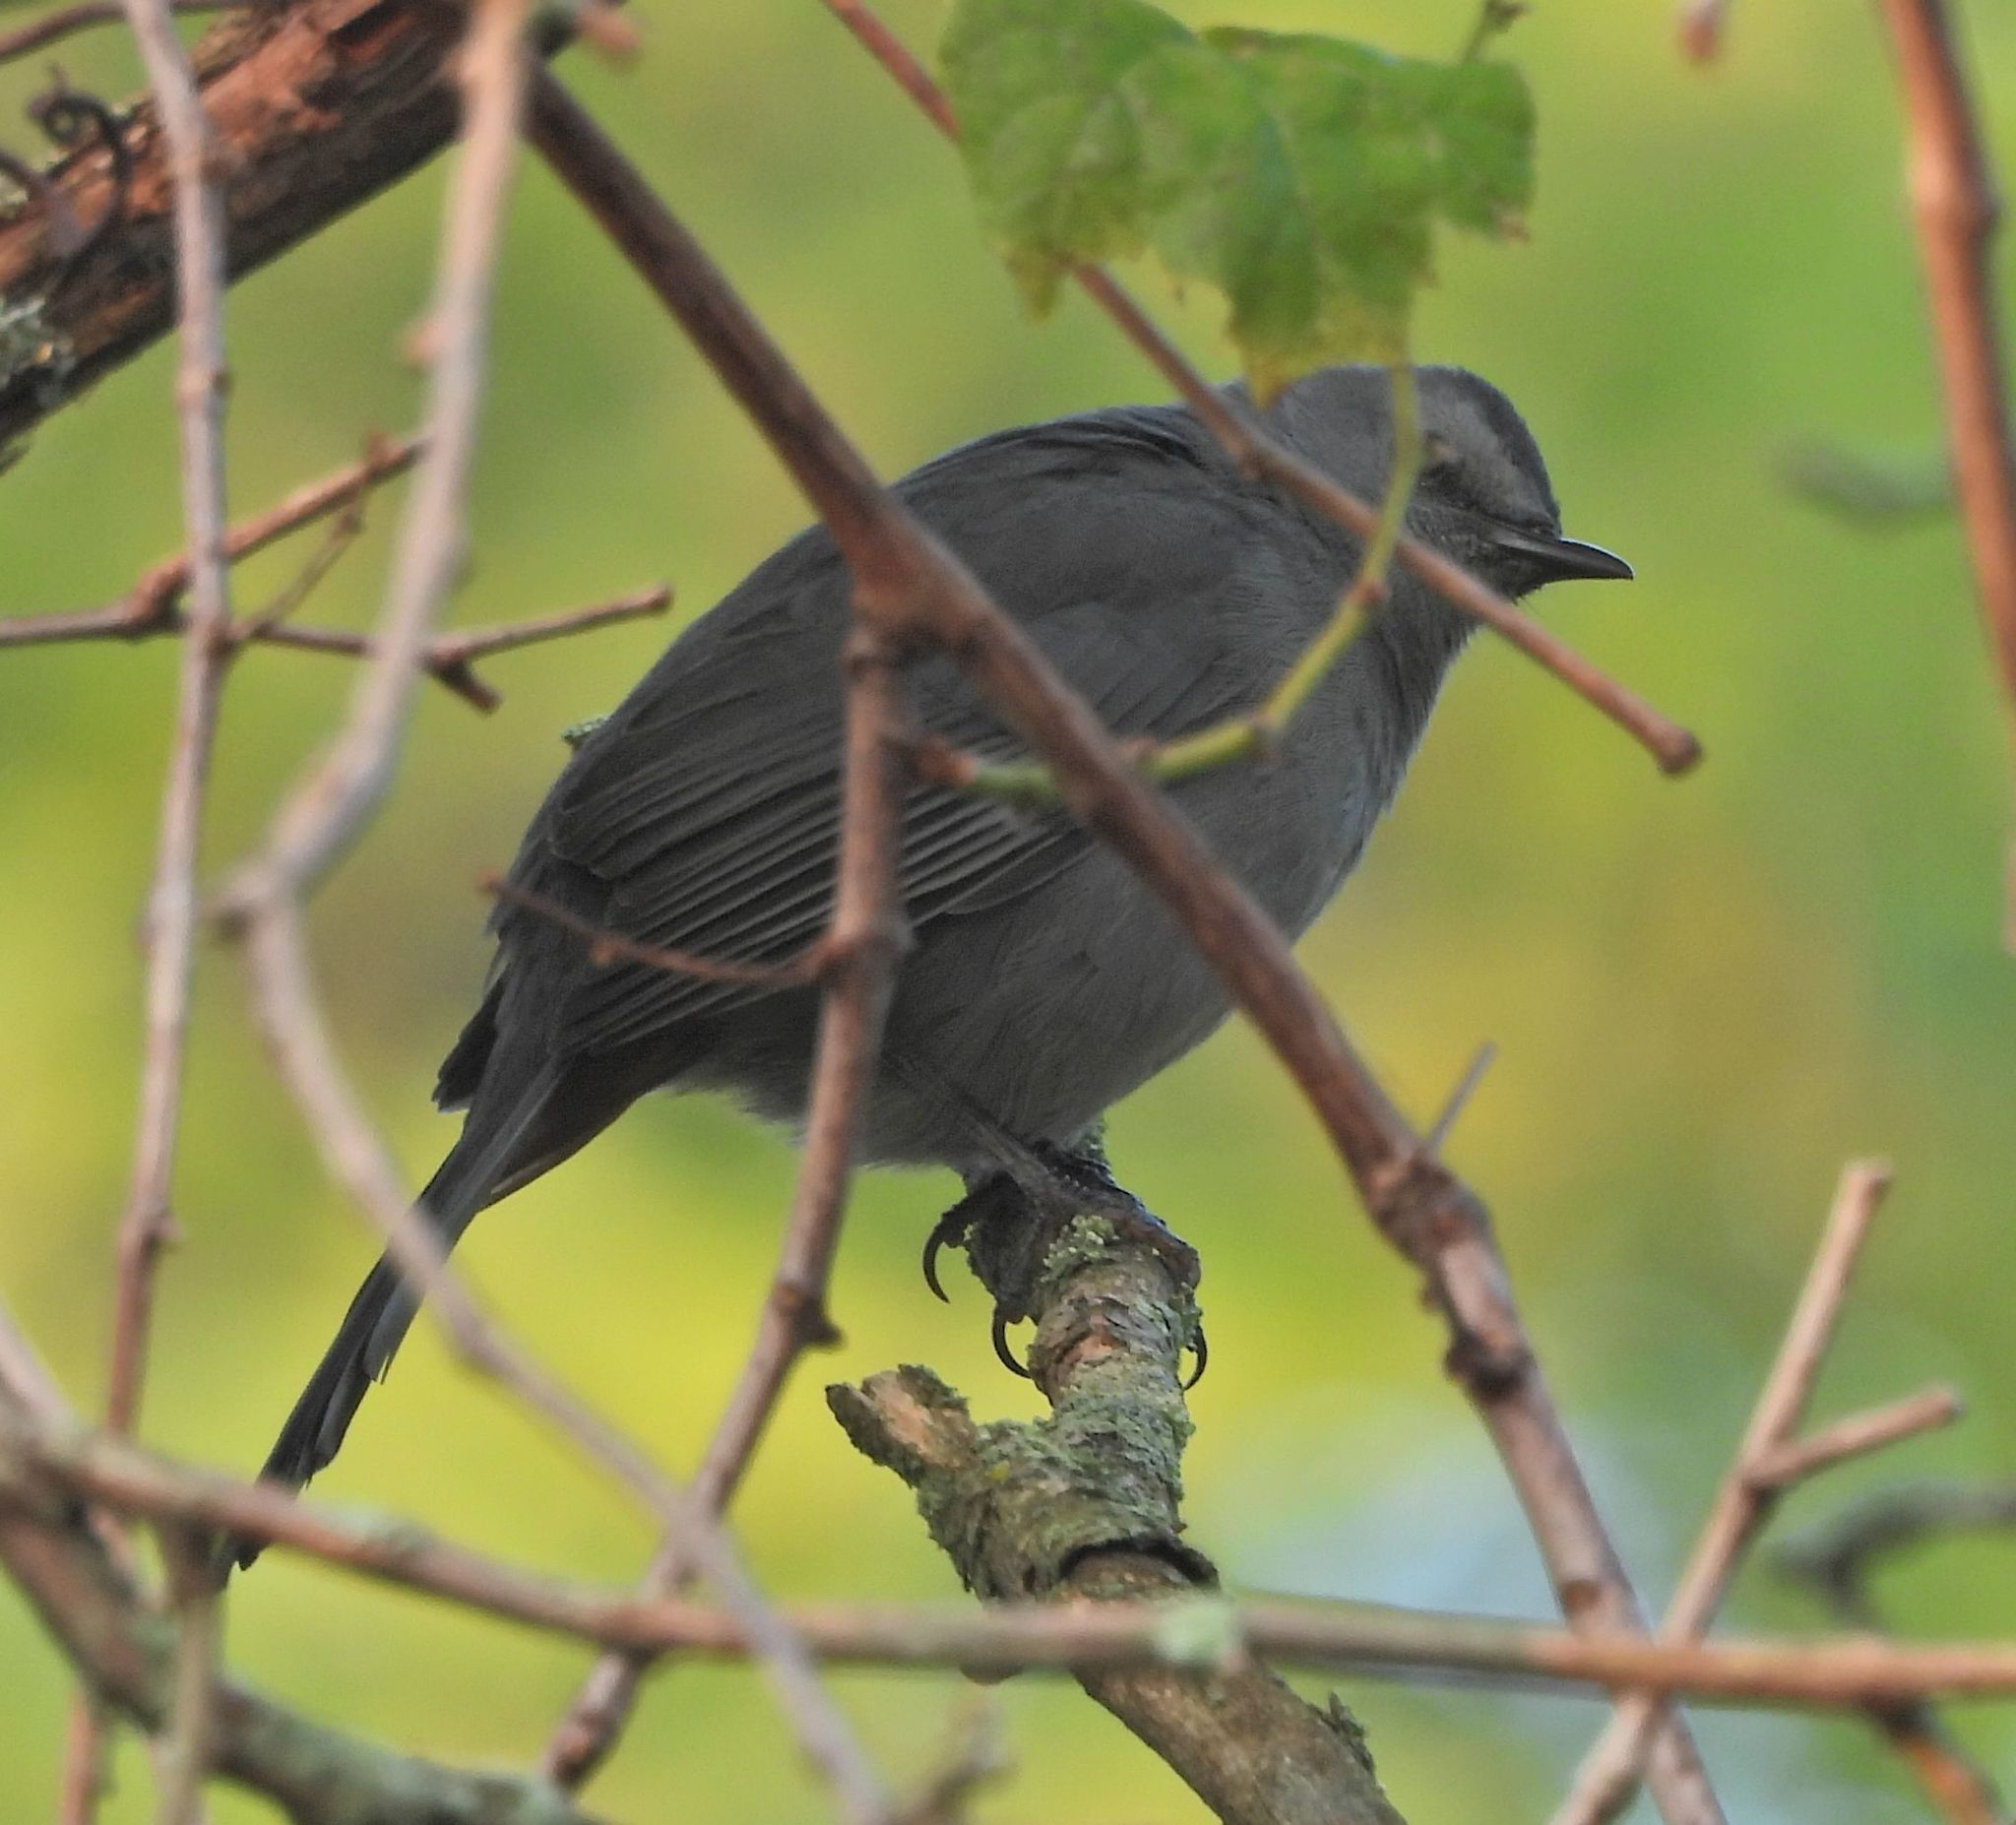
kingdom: Animalia
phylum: Chordata
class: Aves
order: Passeriformes
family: Mimidae
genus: Dumetella
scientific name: Dumetella carolinensis
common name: Gray catbird
